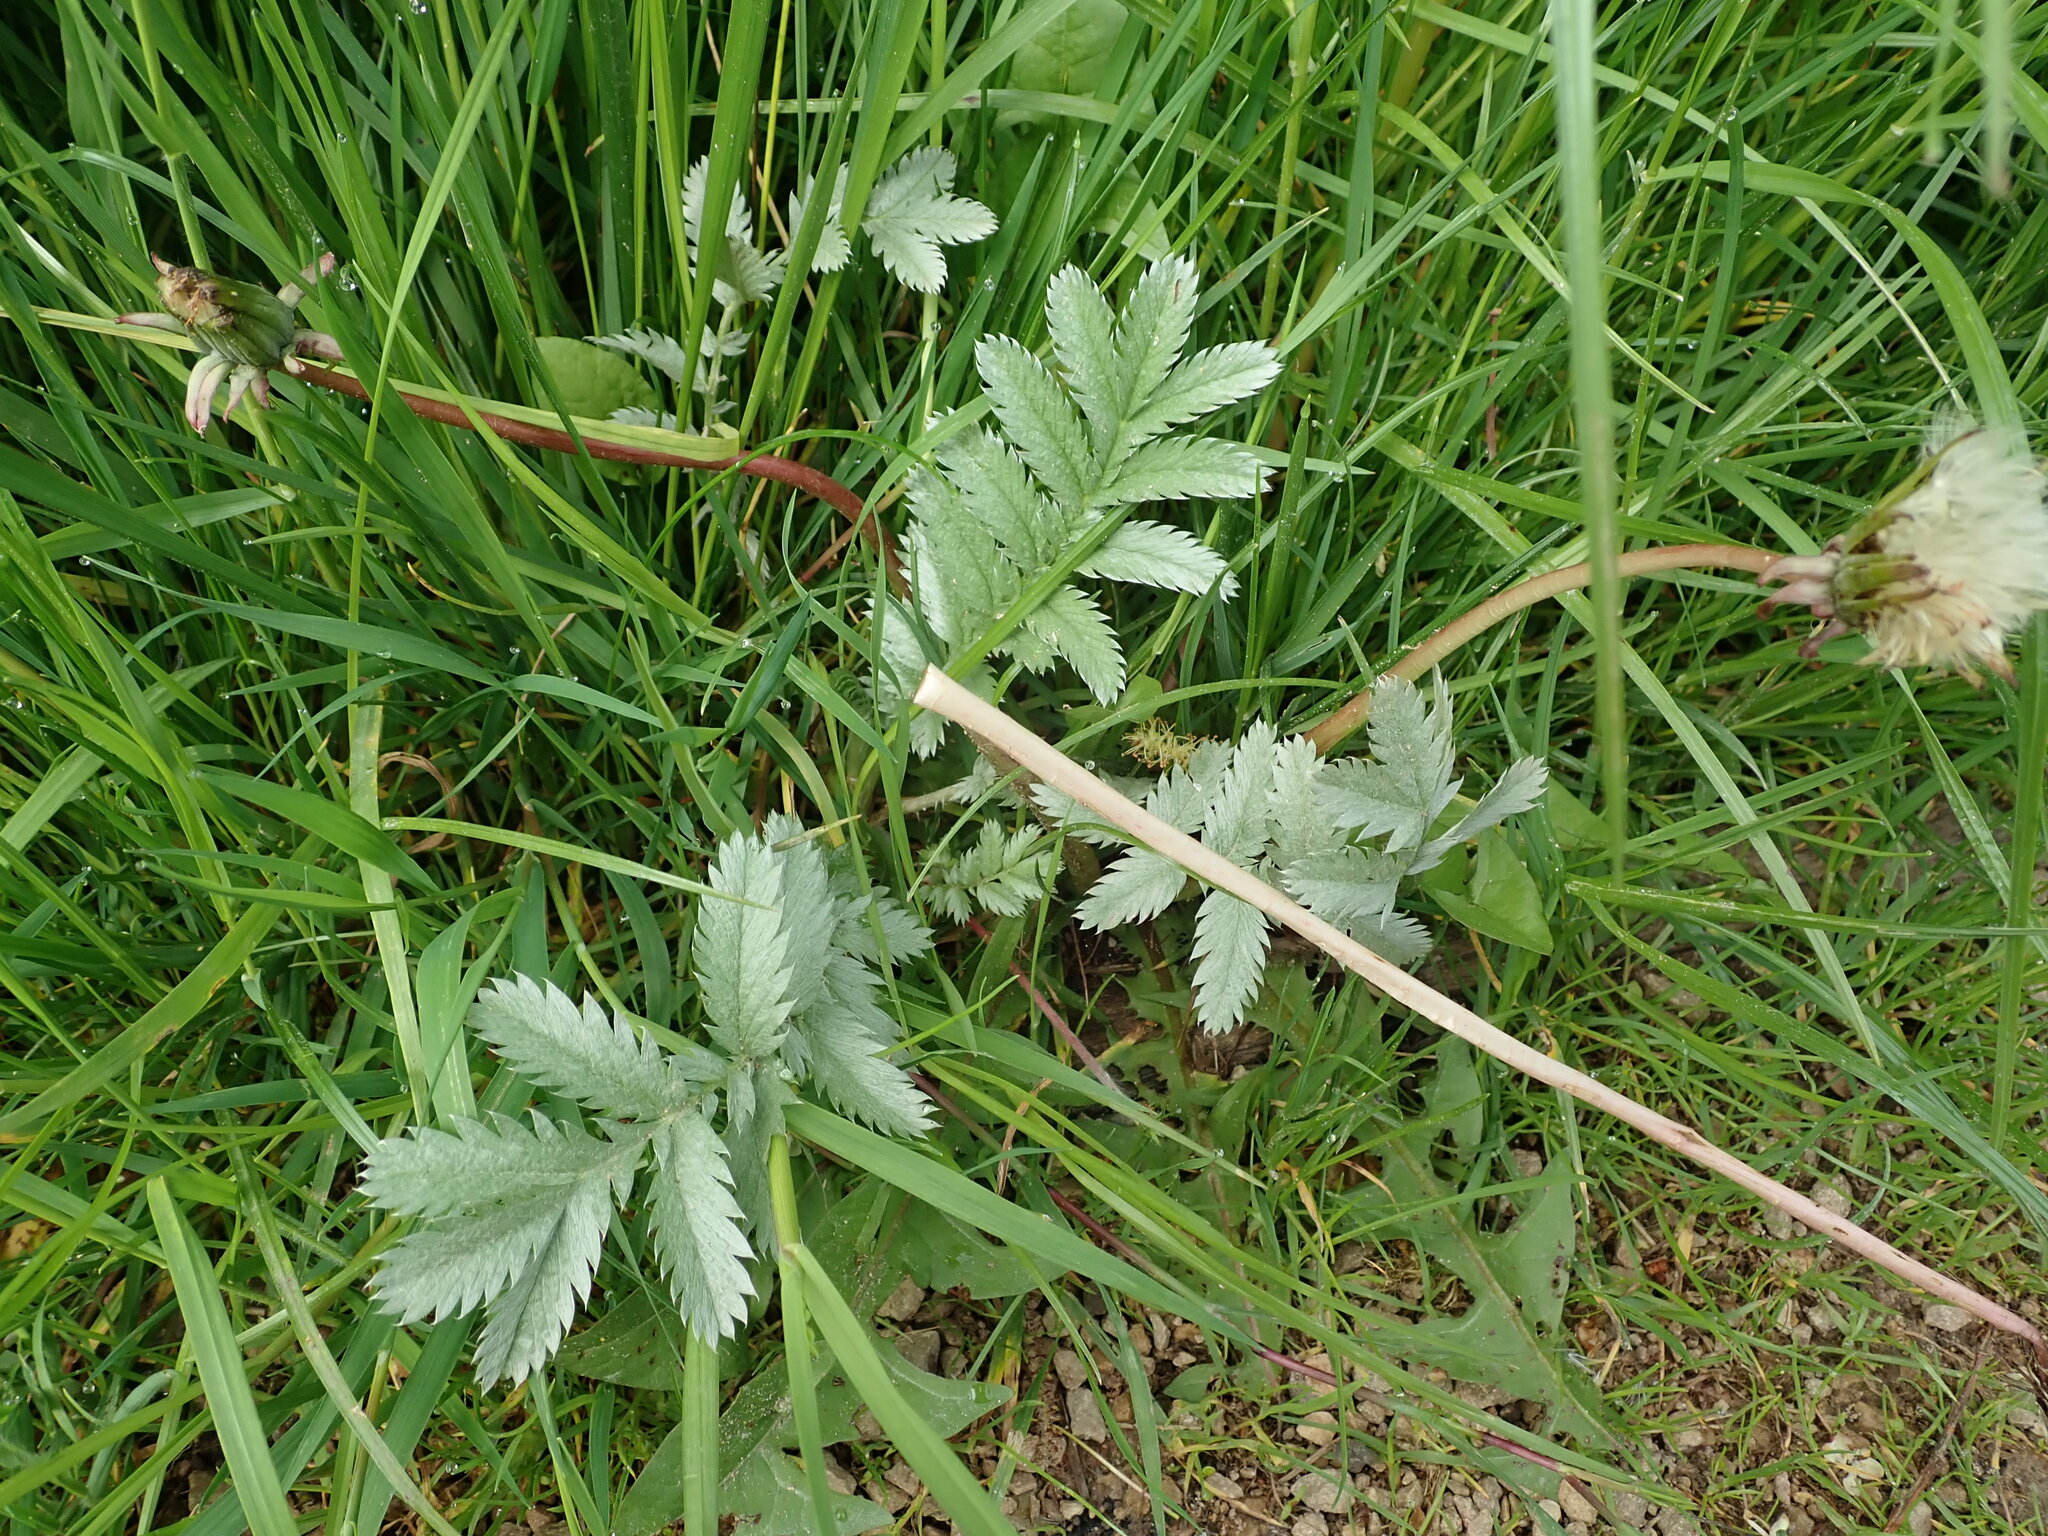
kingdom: Plantae
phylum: Tracheophyta
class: Magnoliopsida
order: Rosales
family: Rosaceae
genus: Argentina
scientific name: Argentina anserina
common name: Common silverweed
